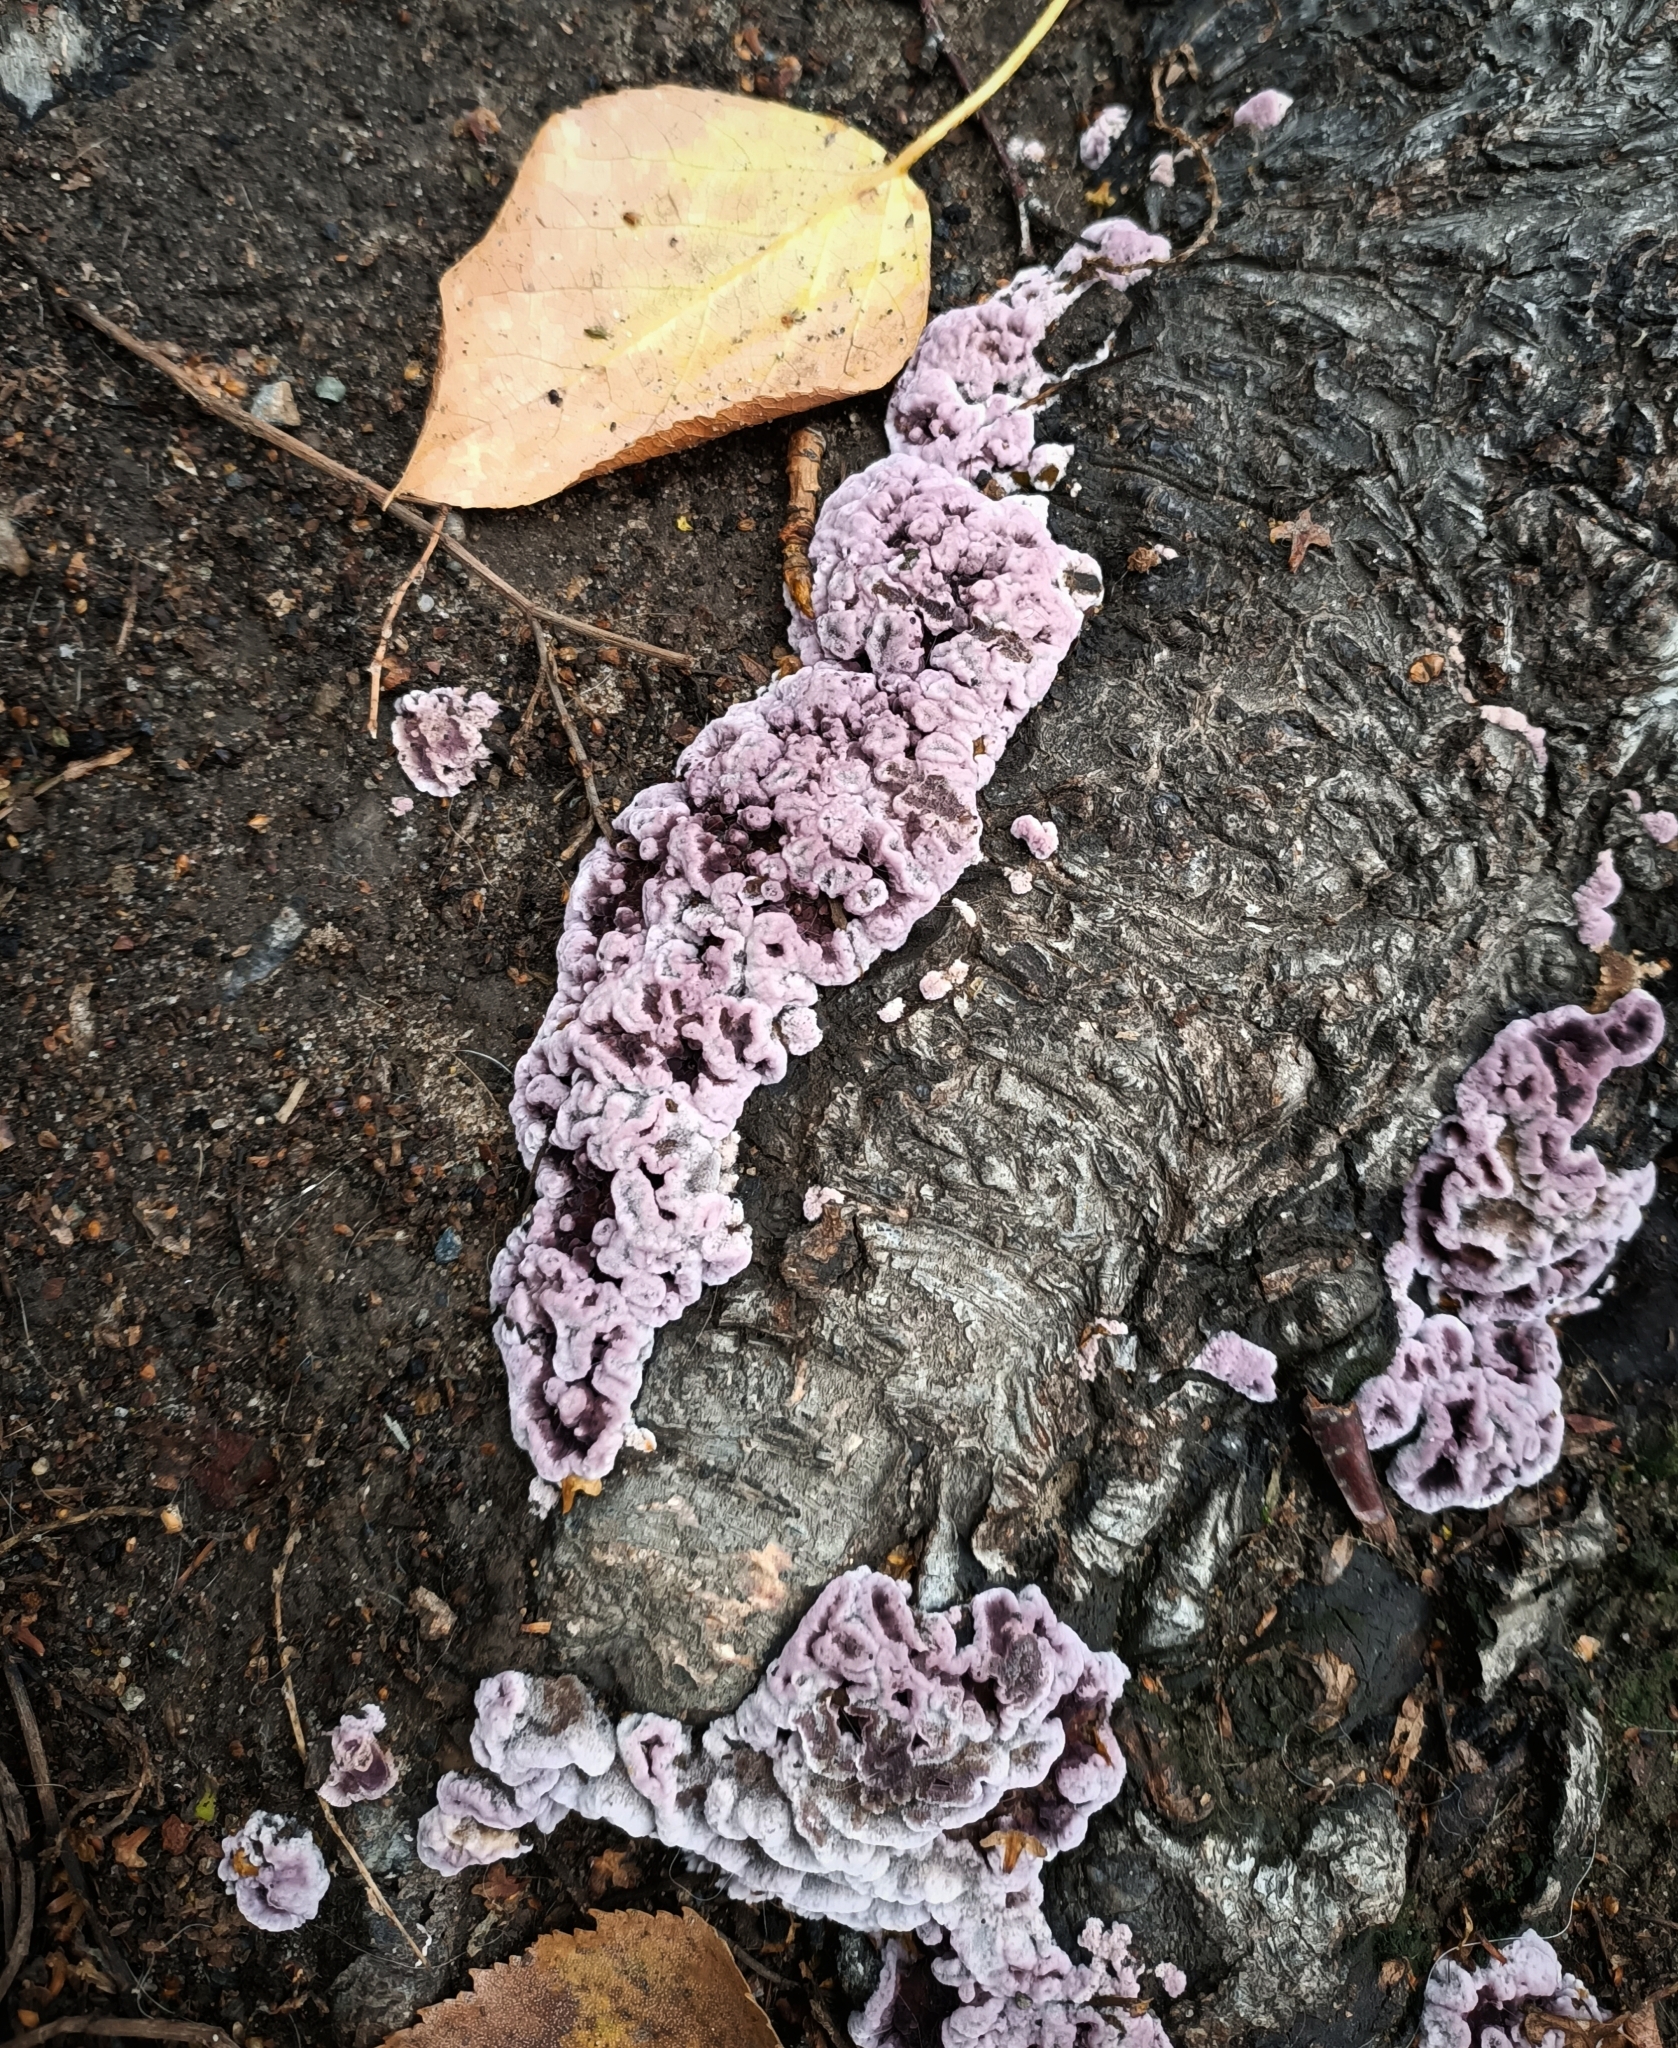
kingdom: Fungi
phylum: Basidiomycota
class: Agaricomycetes
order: Agaricales
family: Cyphellaceae
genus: Chondrostereum
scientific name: Chondrostereum purpureum
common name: Silver leaf disease
